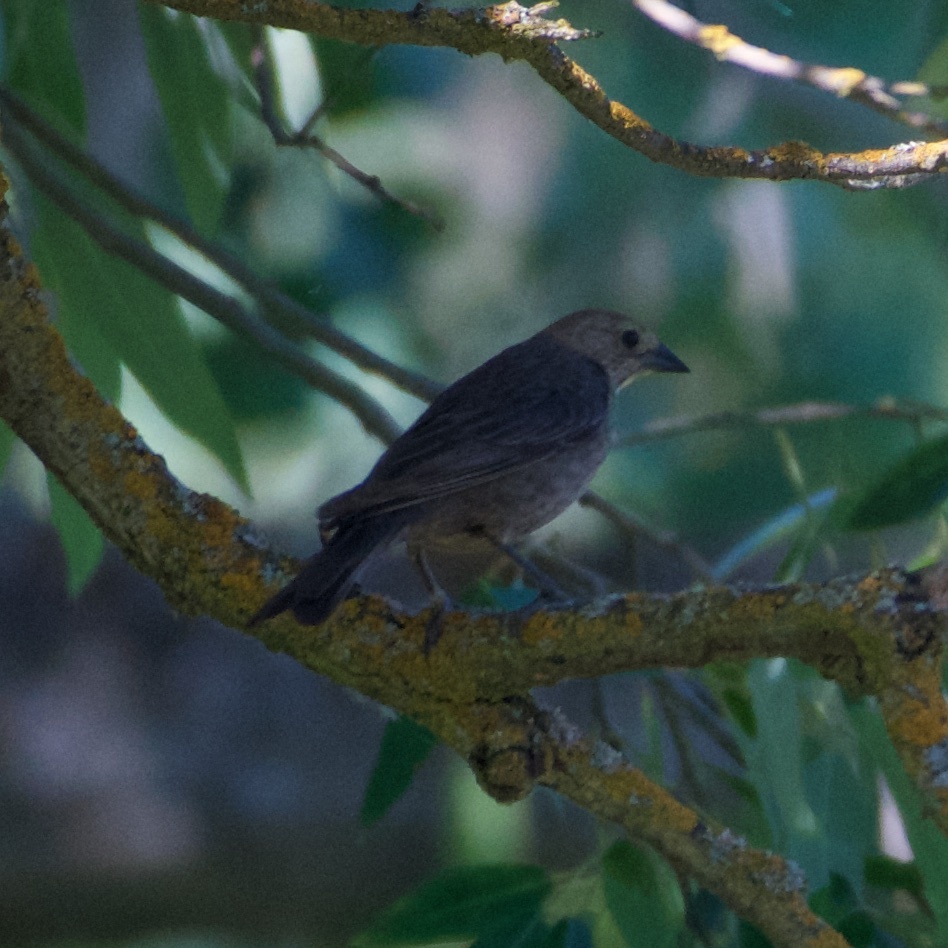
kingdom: Animalia
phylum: Chordata
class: Aves
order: Passeriformes
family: Icteridae
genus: Molothrus
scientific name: Molothrus ater
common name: Brown-headed cowbird
